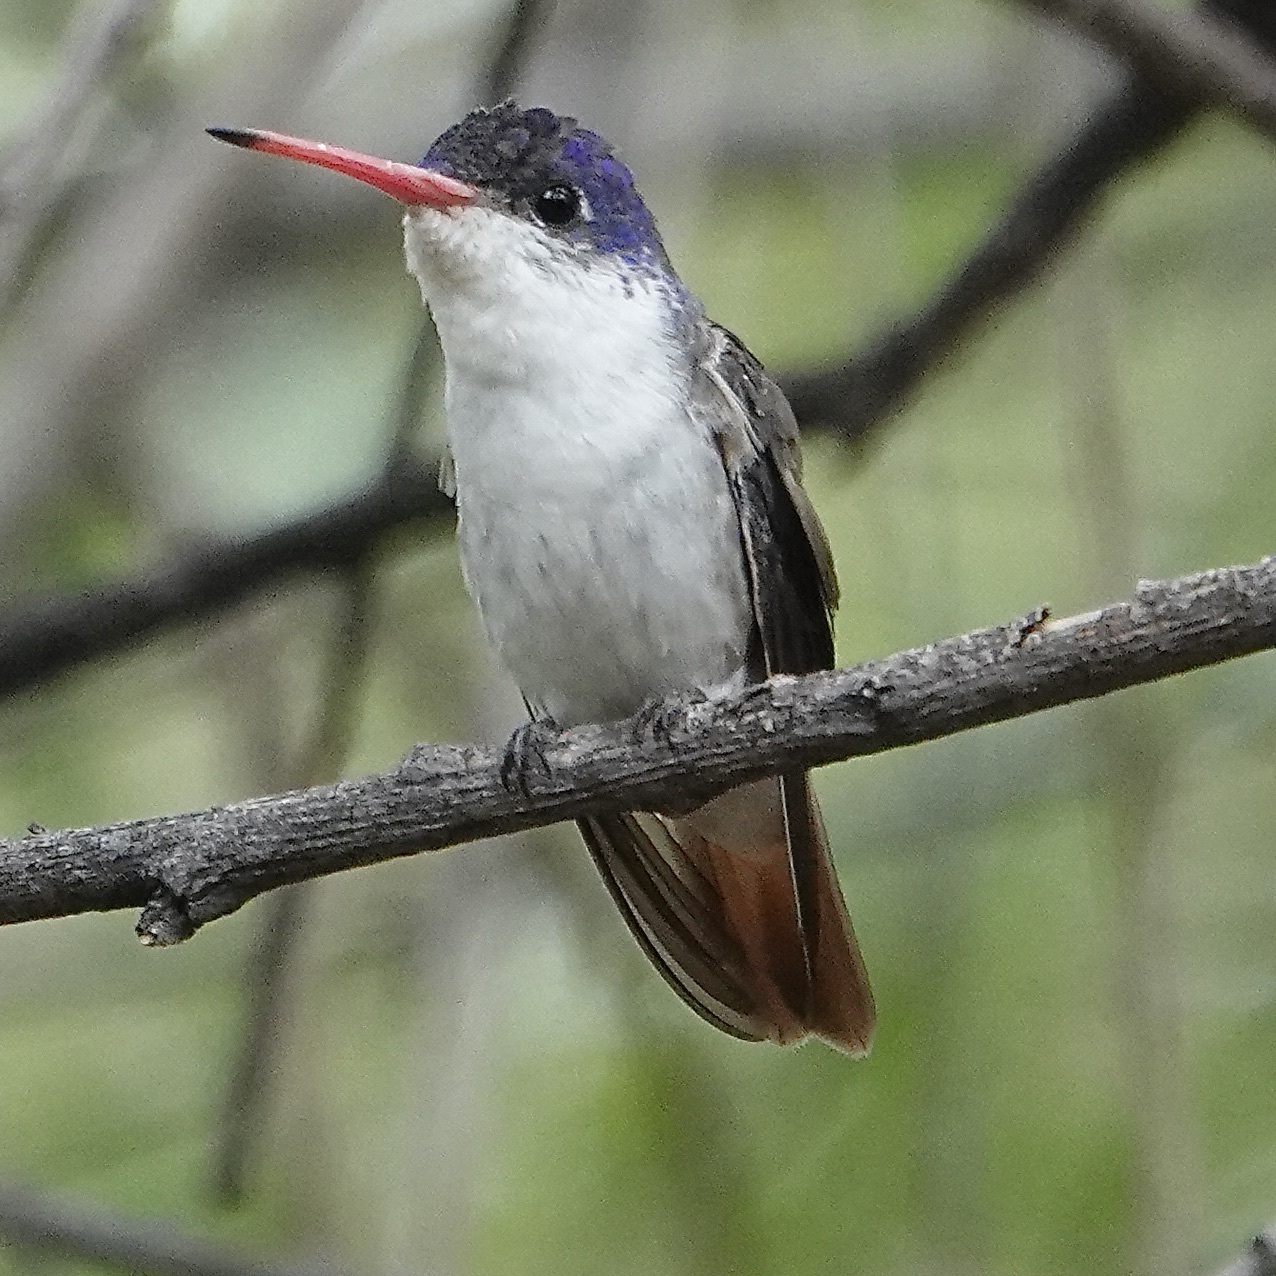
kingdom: Animalia
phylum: Chordata
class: Aves
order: Apodiformes
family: Trochilidae
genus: Leucolia
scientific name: Leucolia violiceps
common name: Violet-crowned hummingbird
